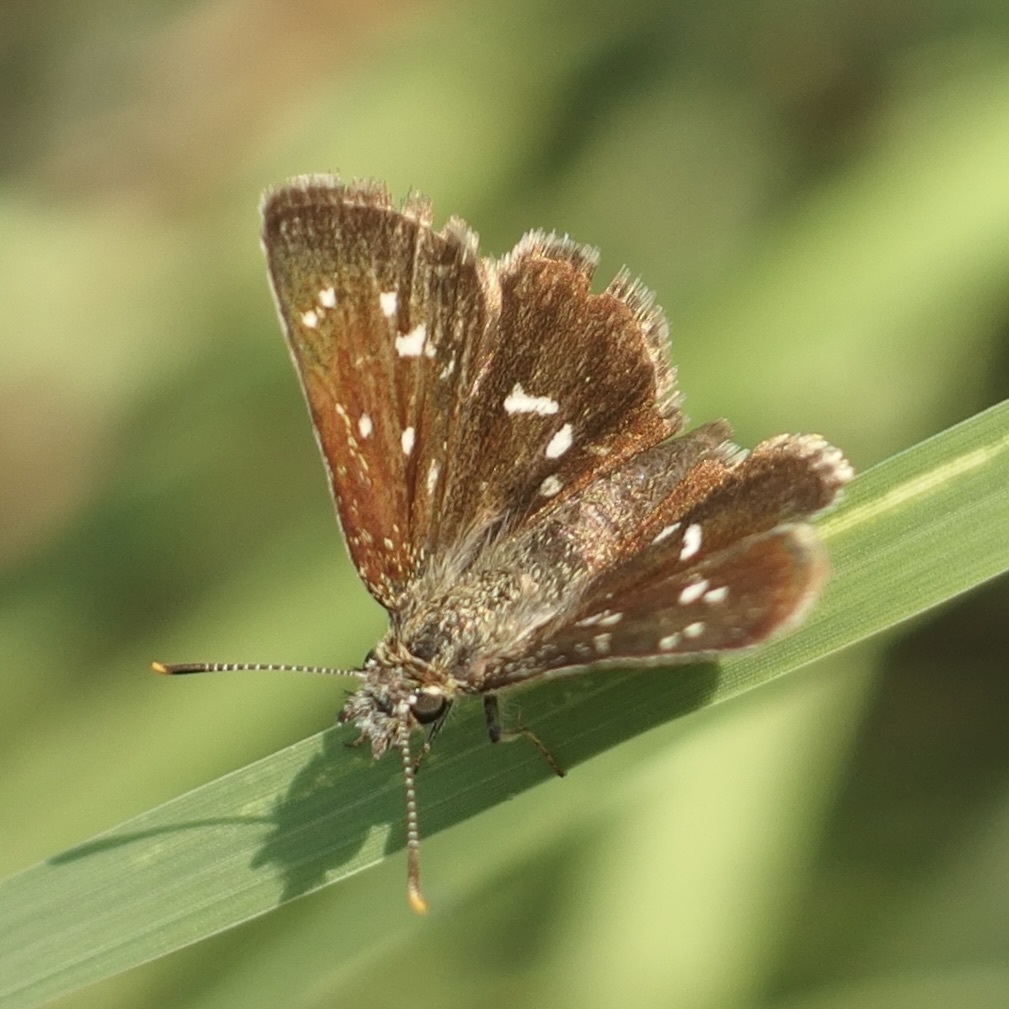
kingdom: Animalia
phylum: Arthropoda
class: Insecta
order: Lepidoptera
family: Hesperiidae
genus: Piruna
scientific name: Piruna aea
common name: Many-spotted skipperling
